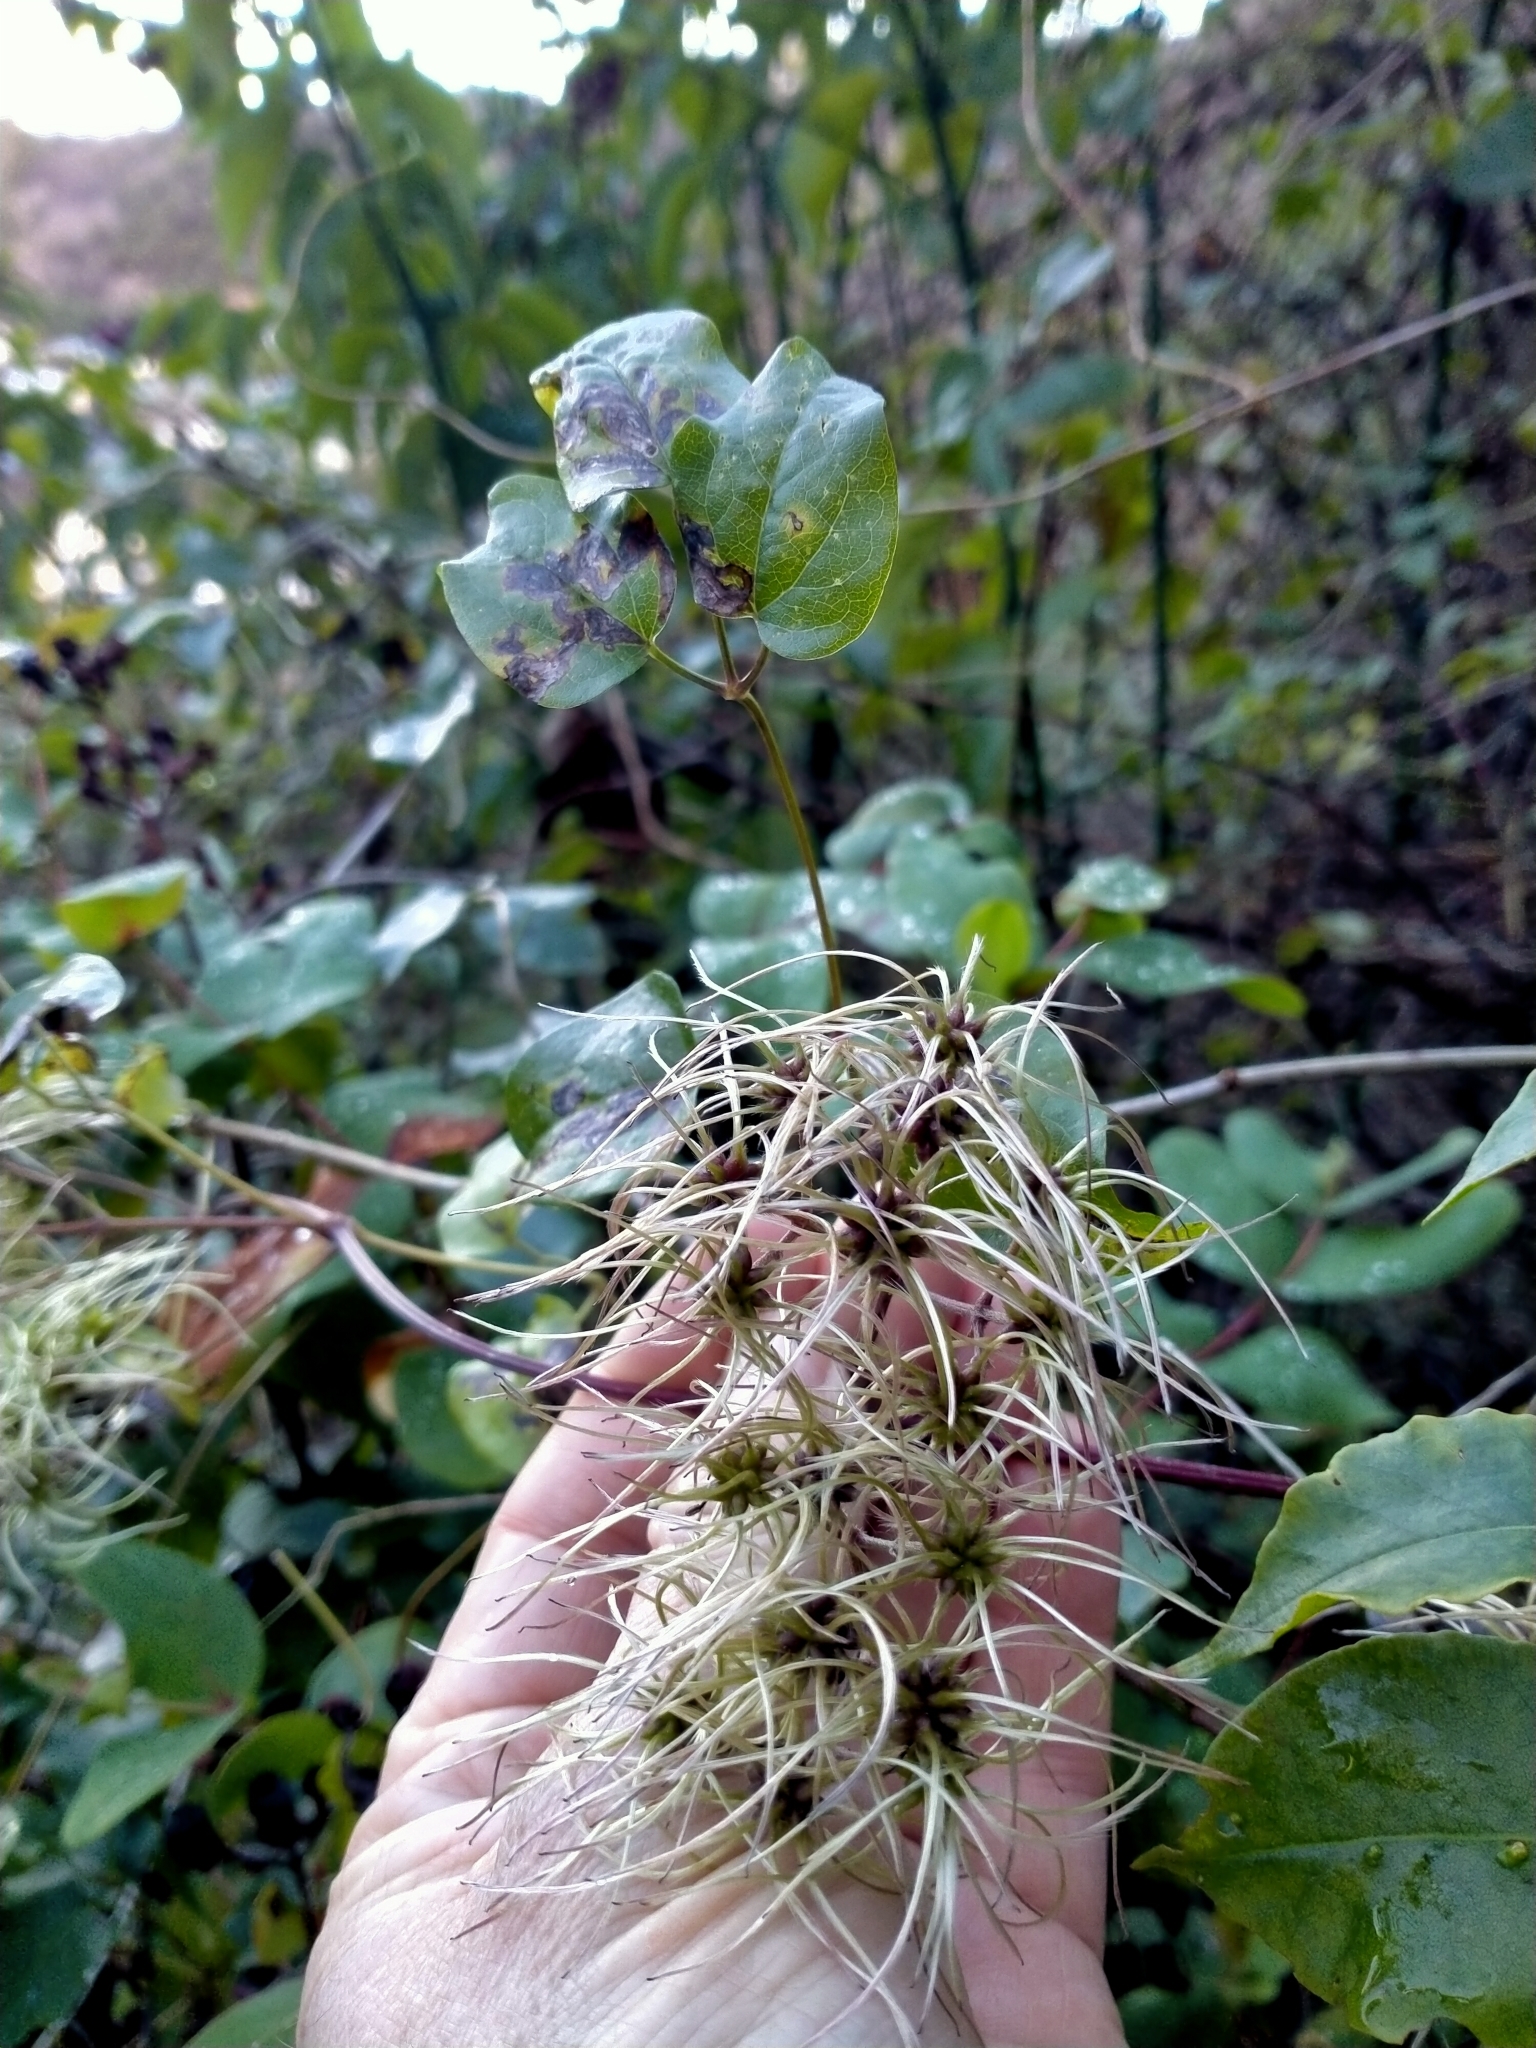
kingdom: Plantae
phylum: Tracheophyta
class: Magnoliopsida
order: Ranunculales
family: Ranunculaceae
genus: Clematis
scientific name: Clematis vitalba
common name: Evergreen clematis
